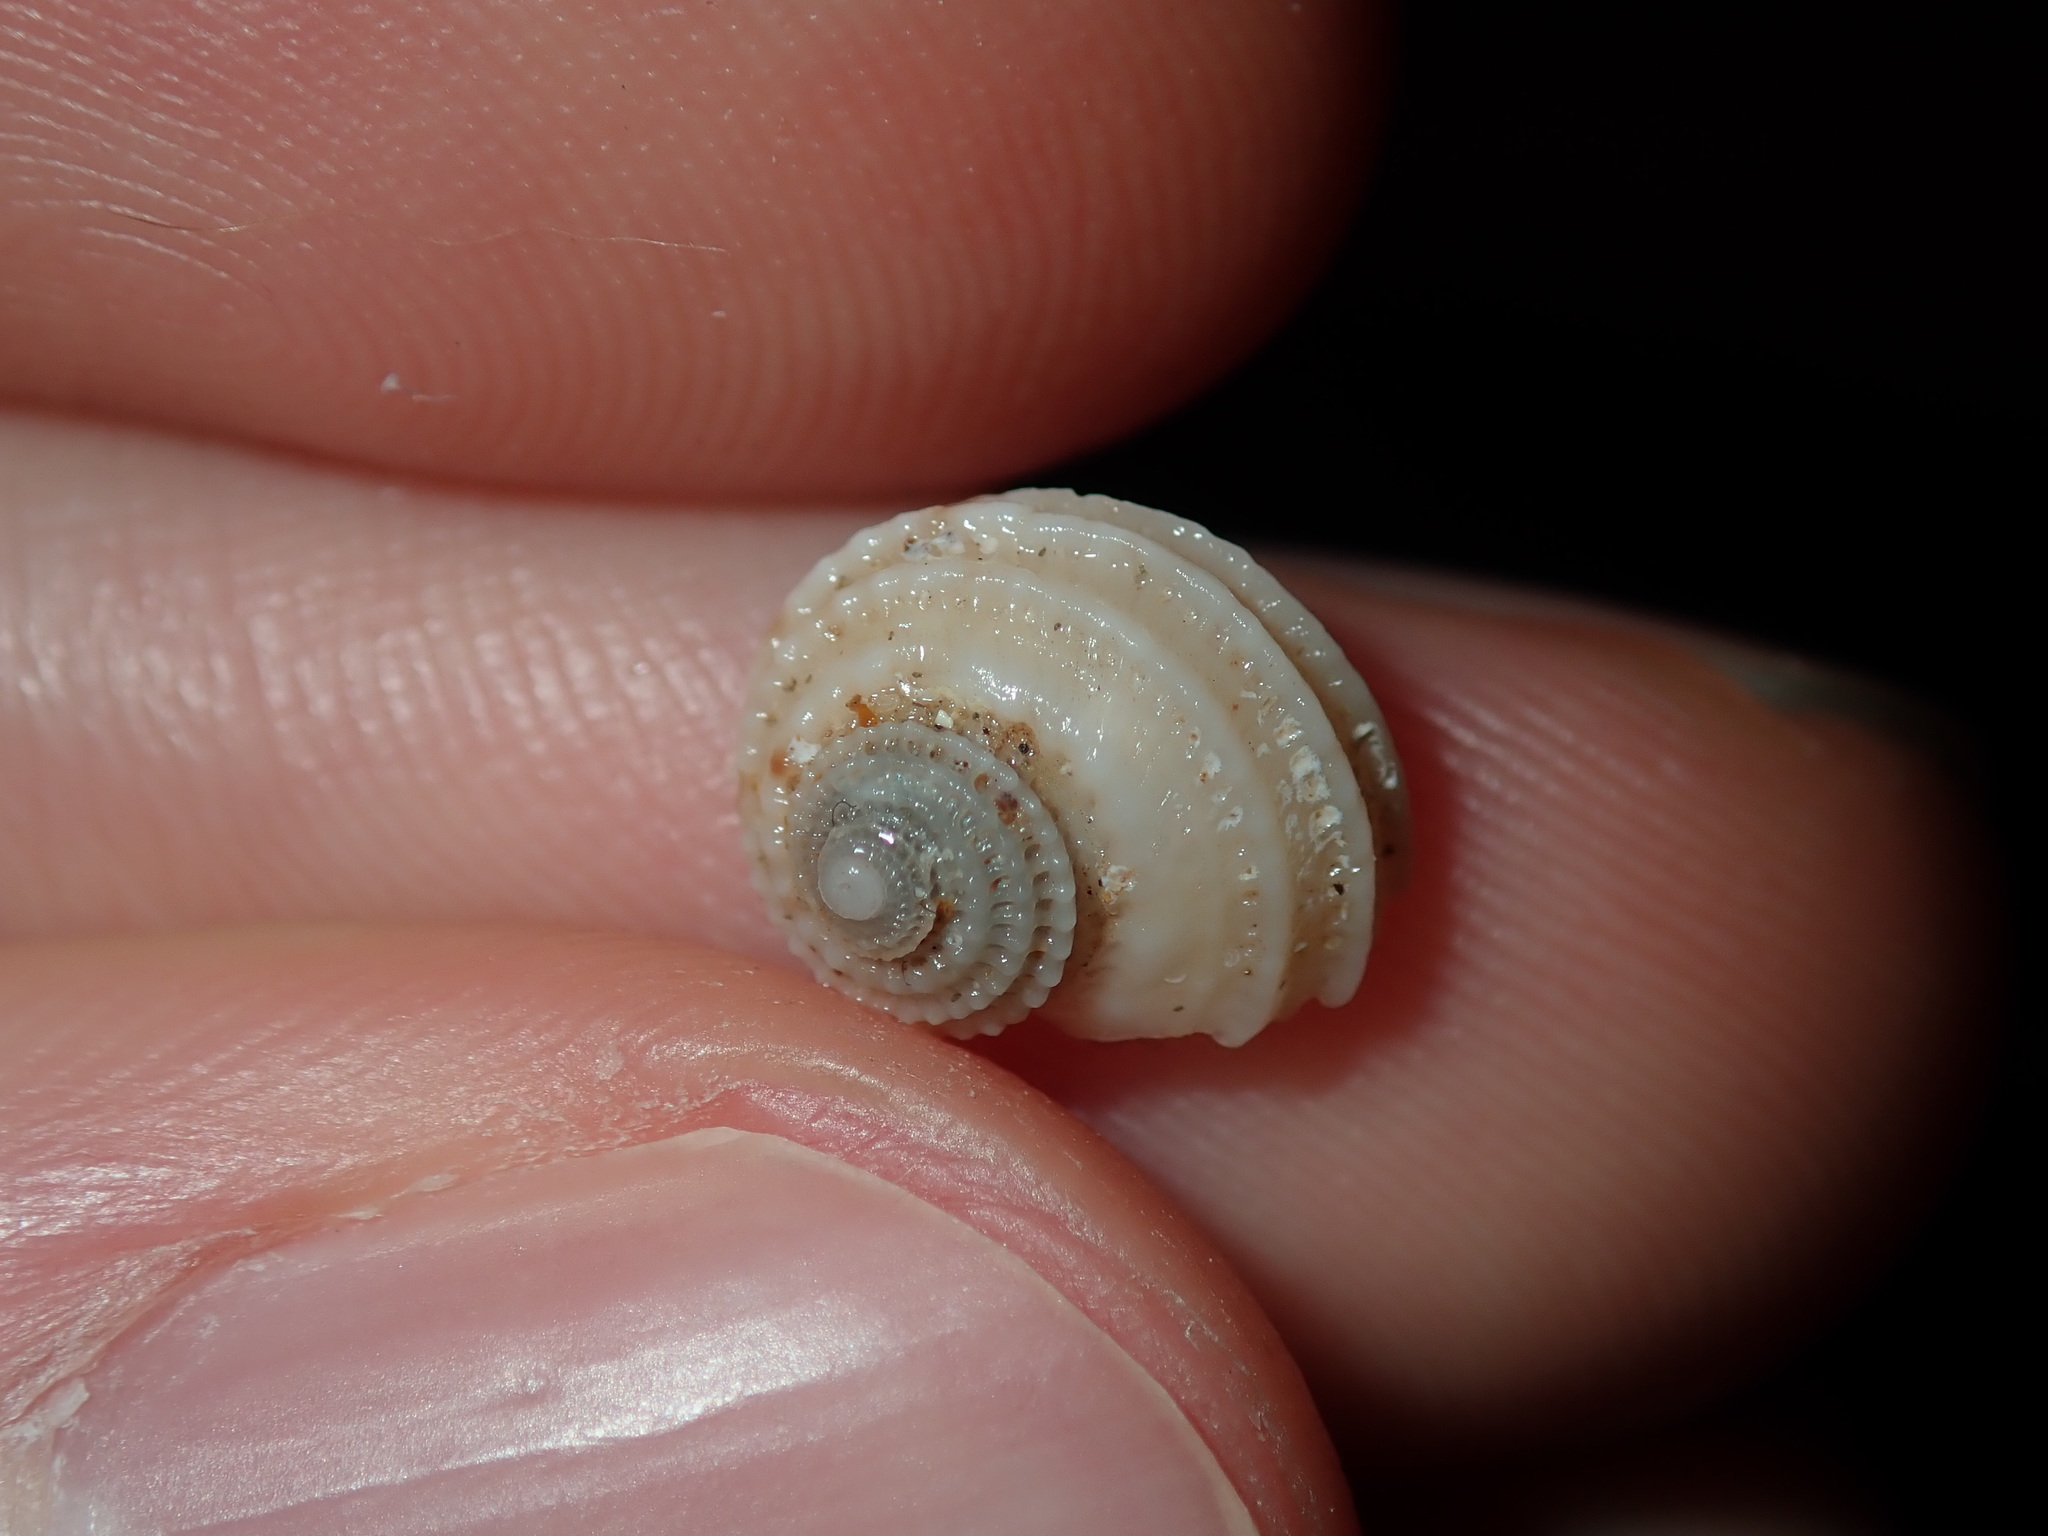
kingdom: Animalia
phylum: Mollusca
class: Gastropoda
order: Seguenziida
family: Chilodontaidae
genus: Vaceuchelus
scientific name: Vaceuchelus ampullus
